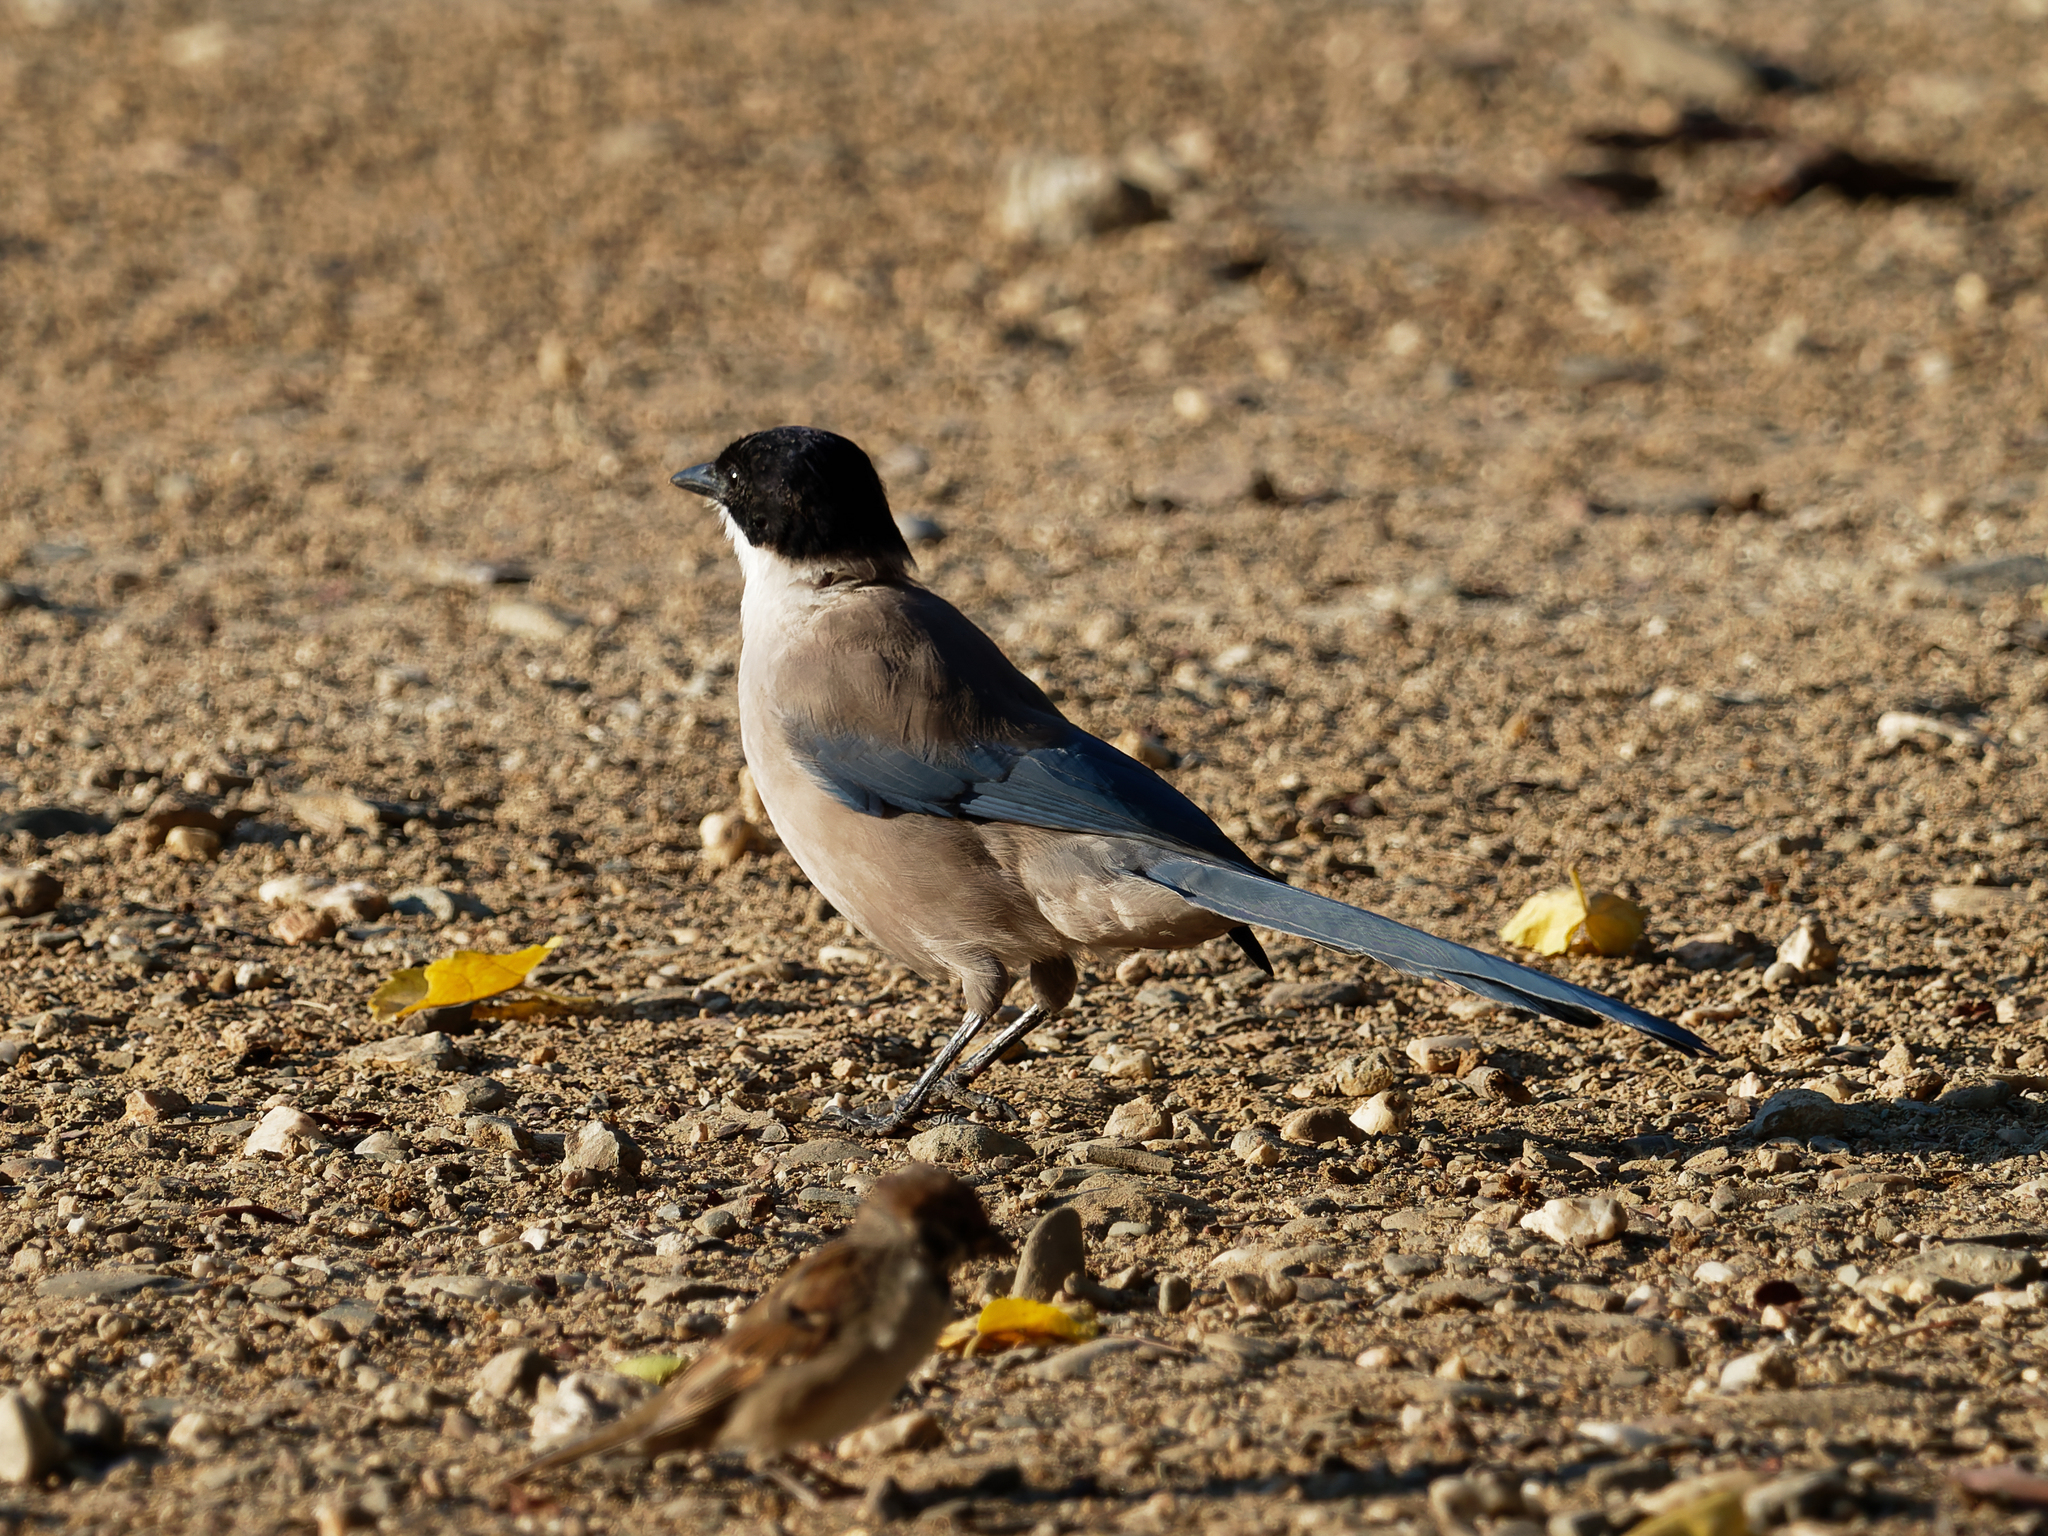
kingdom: Animalia
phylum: Chordata
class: Aves
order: Passeriformes
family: Corvidae
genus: Cyanopica
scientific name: Cyanopica cooki
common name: Iberian magpie
